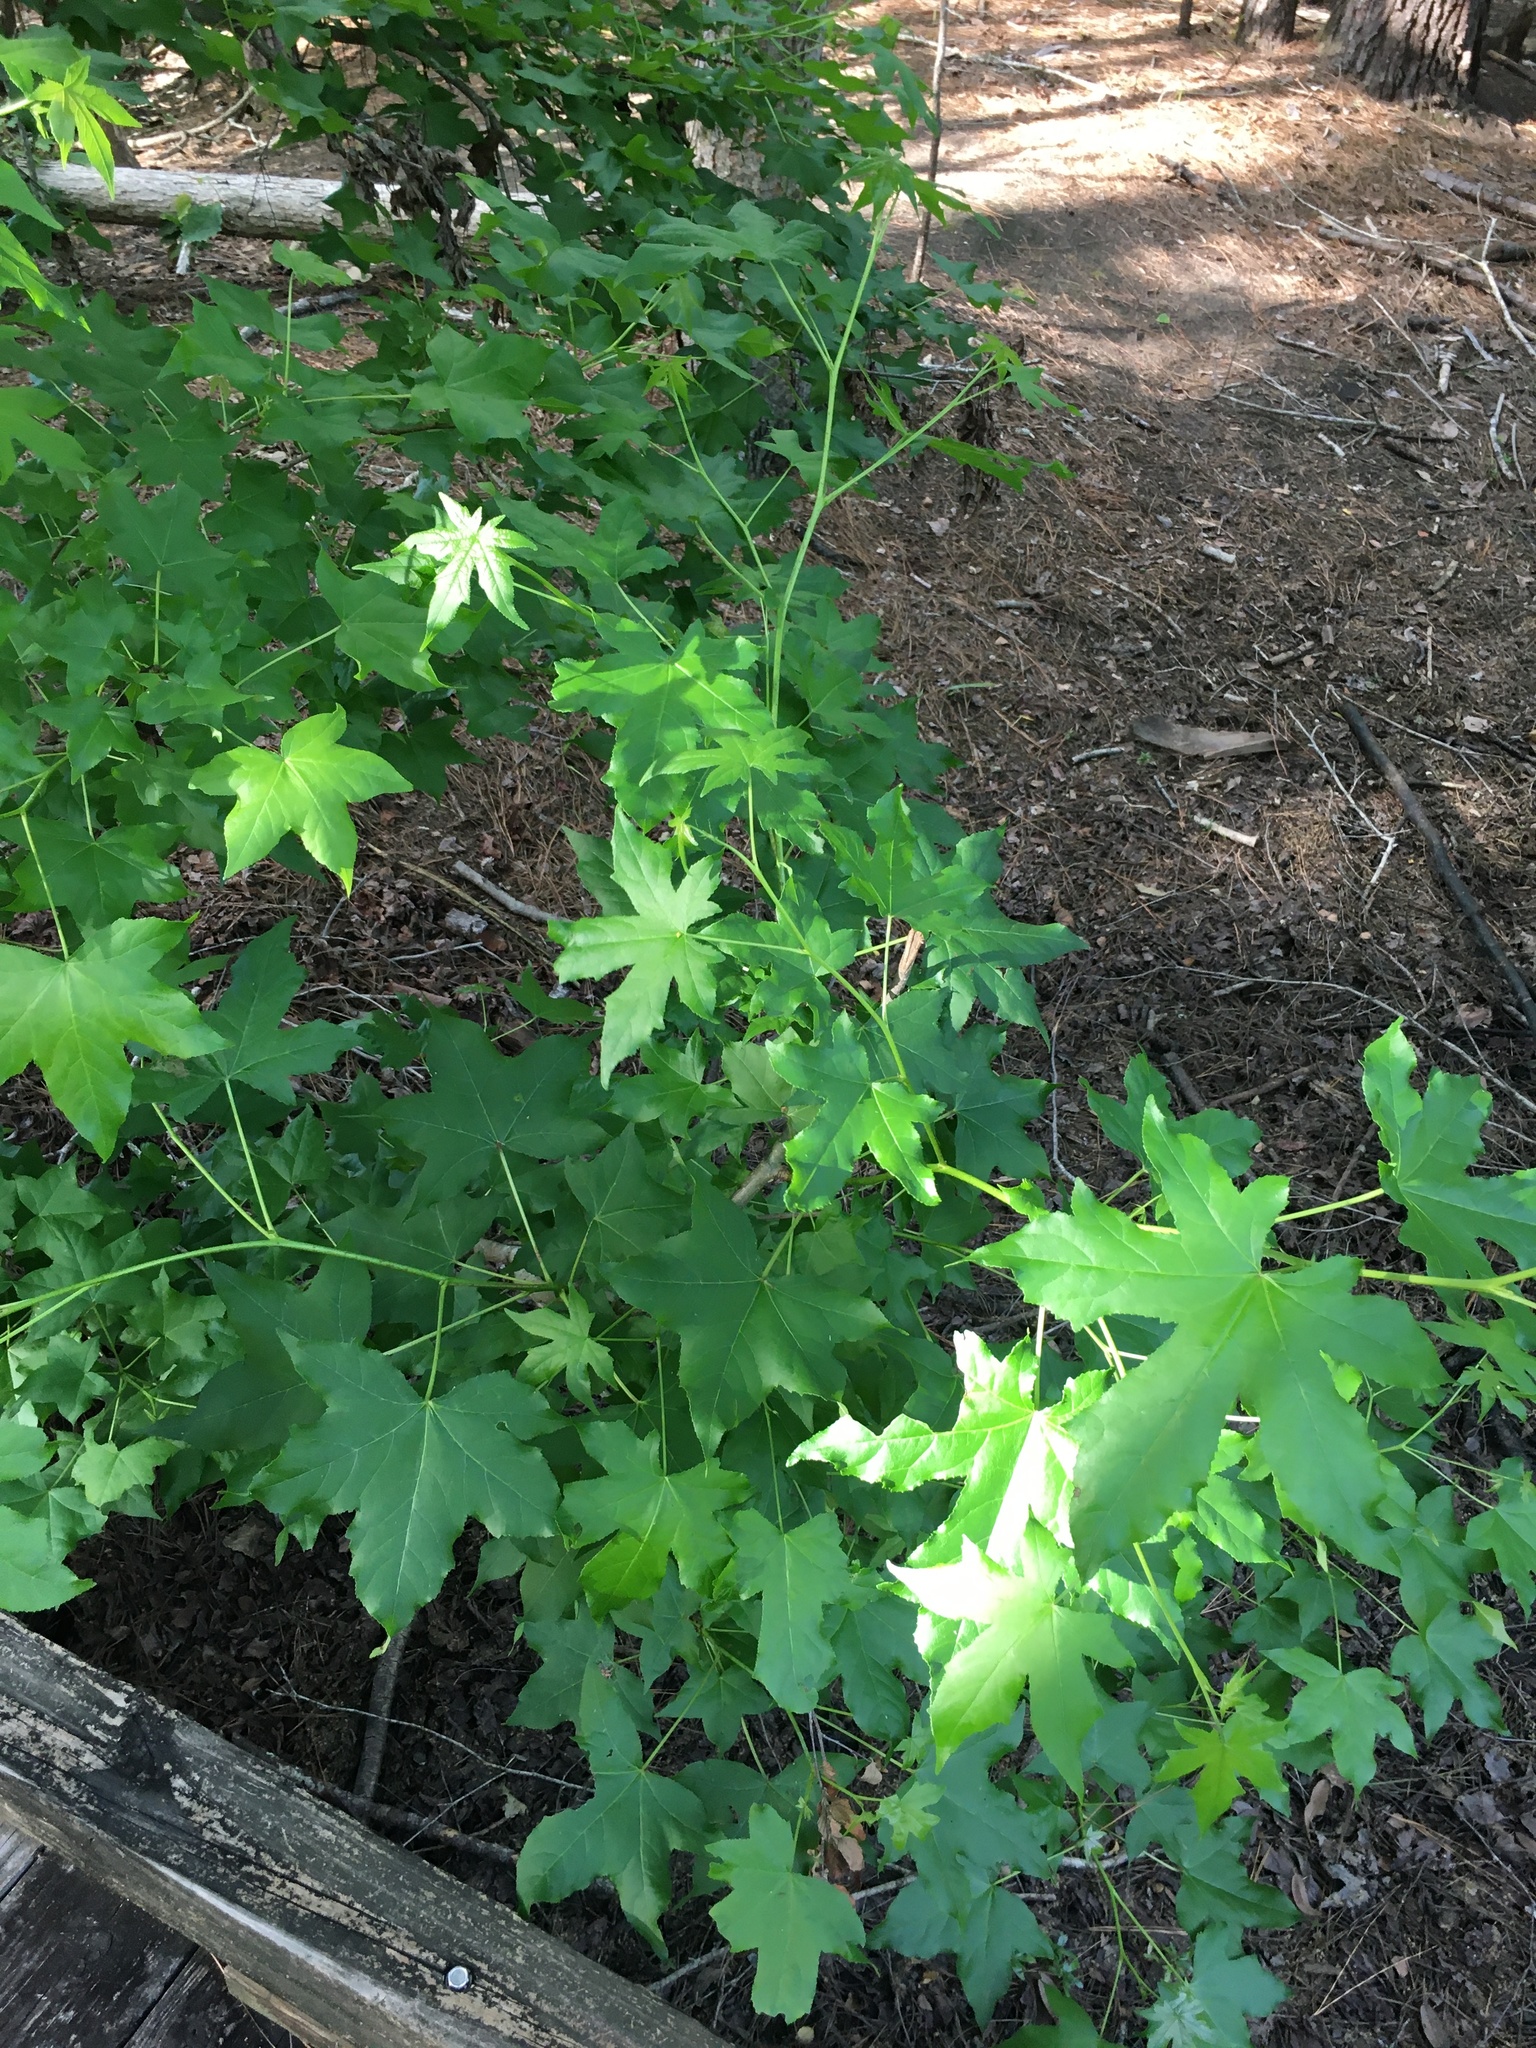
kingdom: Plantae
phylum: Tracheophyta
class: Magnoliopsida
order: Saxifragales
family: Altingiaceae
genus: Liquidambar
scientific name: Liquidambar styraciflua
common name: Sweet gum
